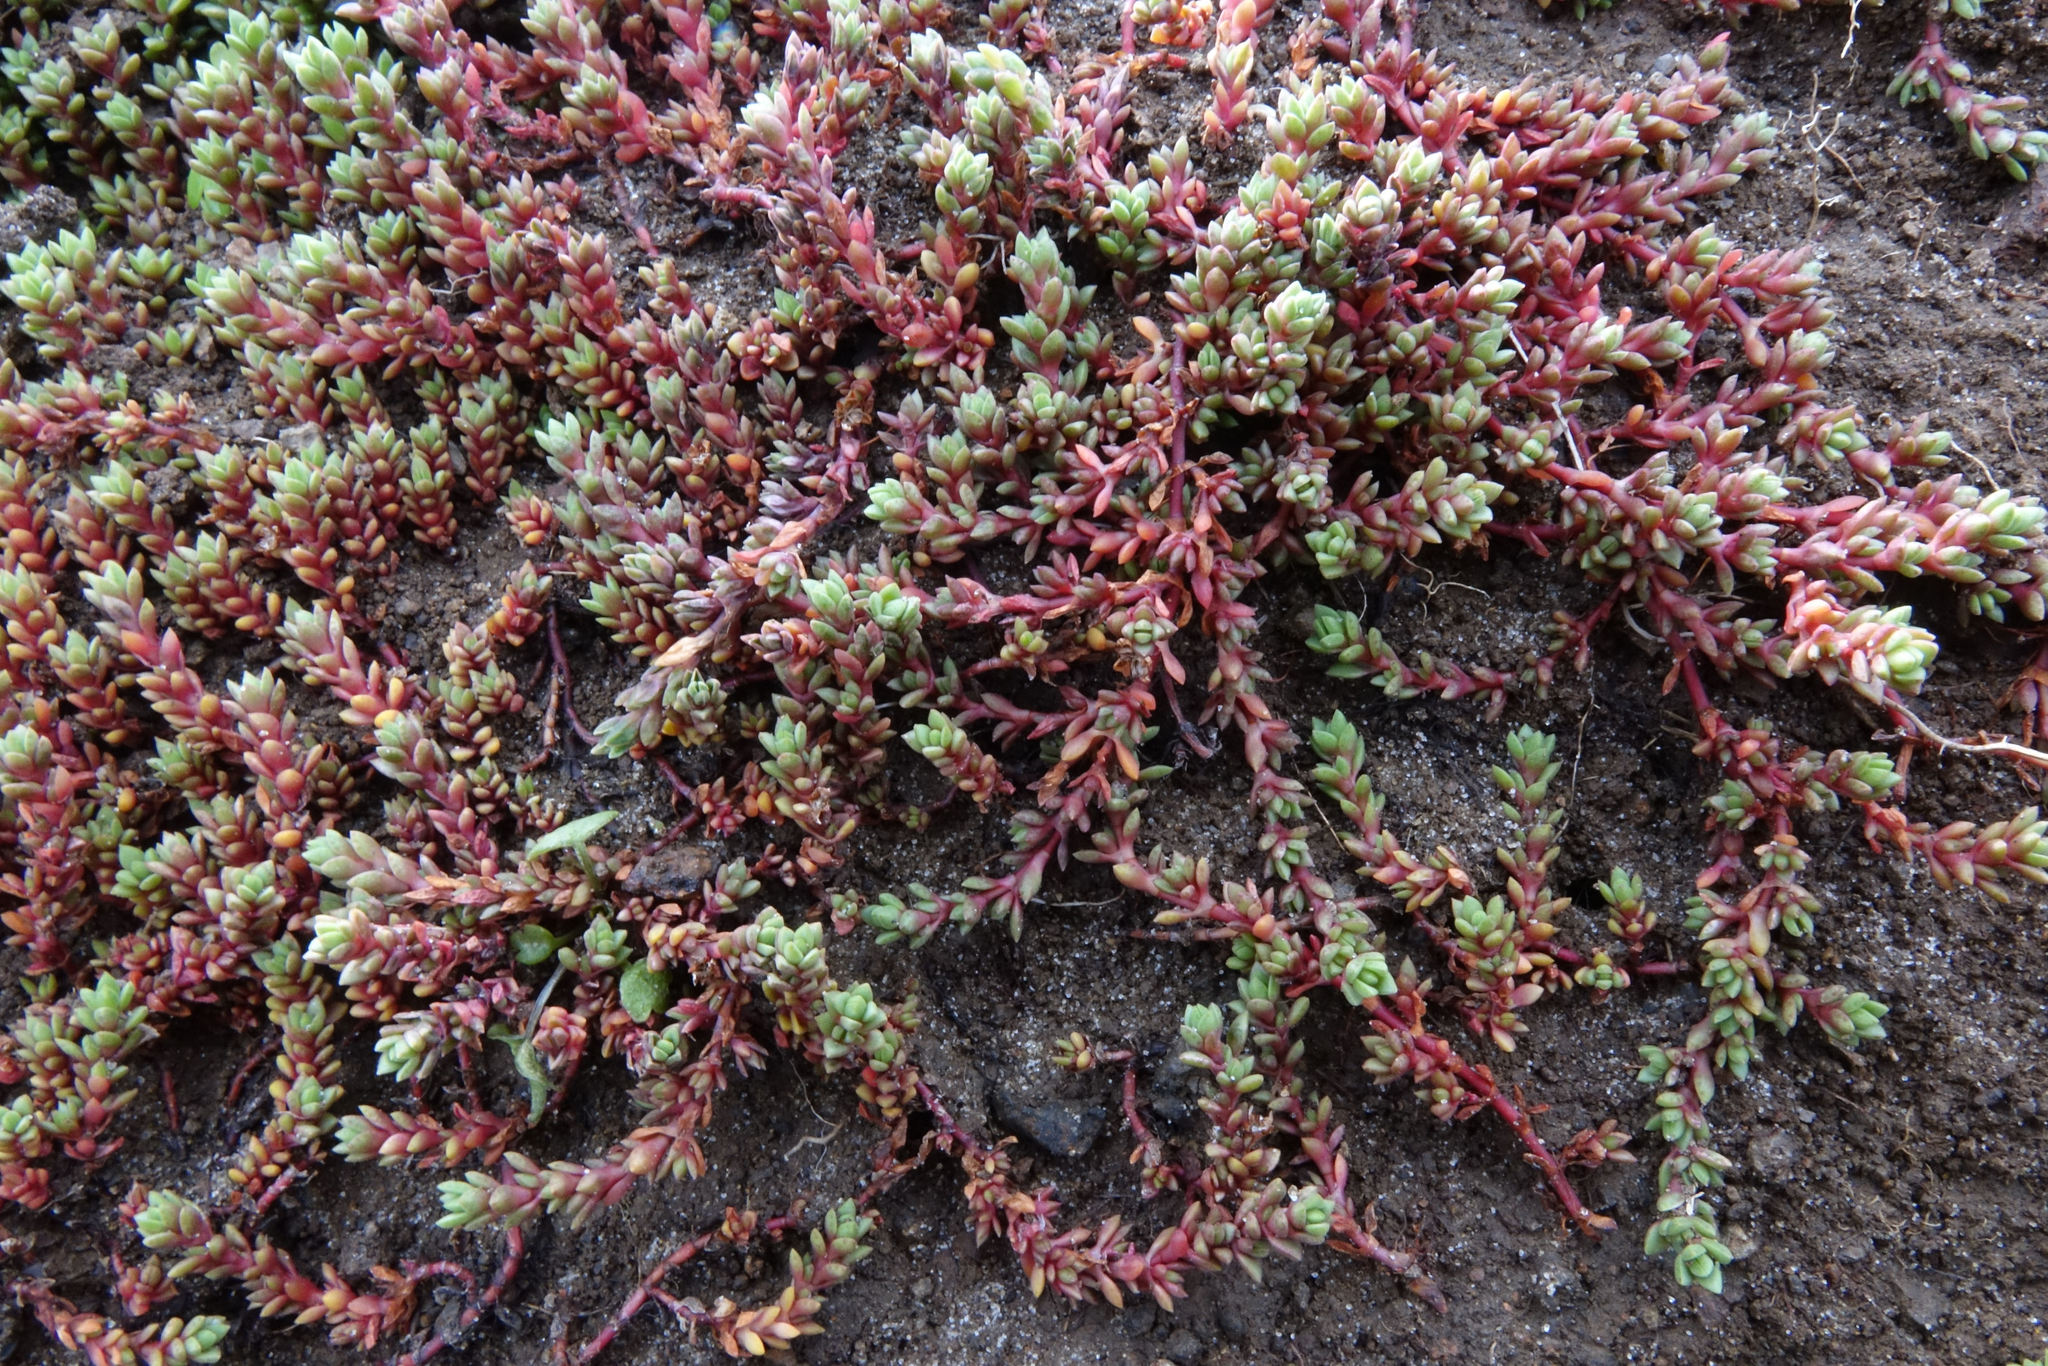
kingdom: Plantae
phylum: Tracheophyta
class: Magnoliopsida
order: Saxifragales
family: Crassulaceae
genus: Crassula
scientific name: Crassula moschata
